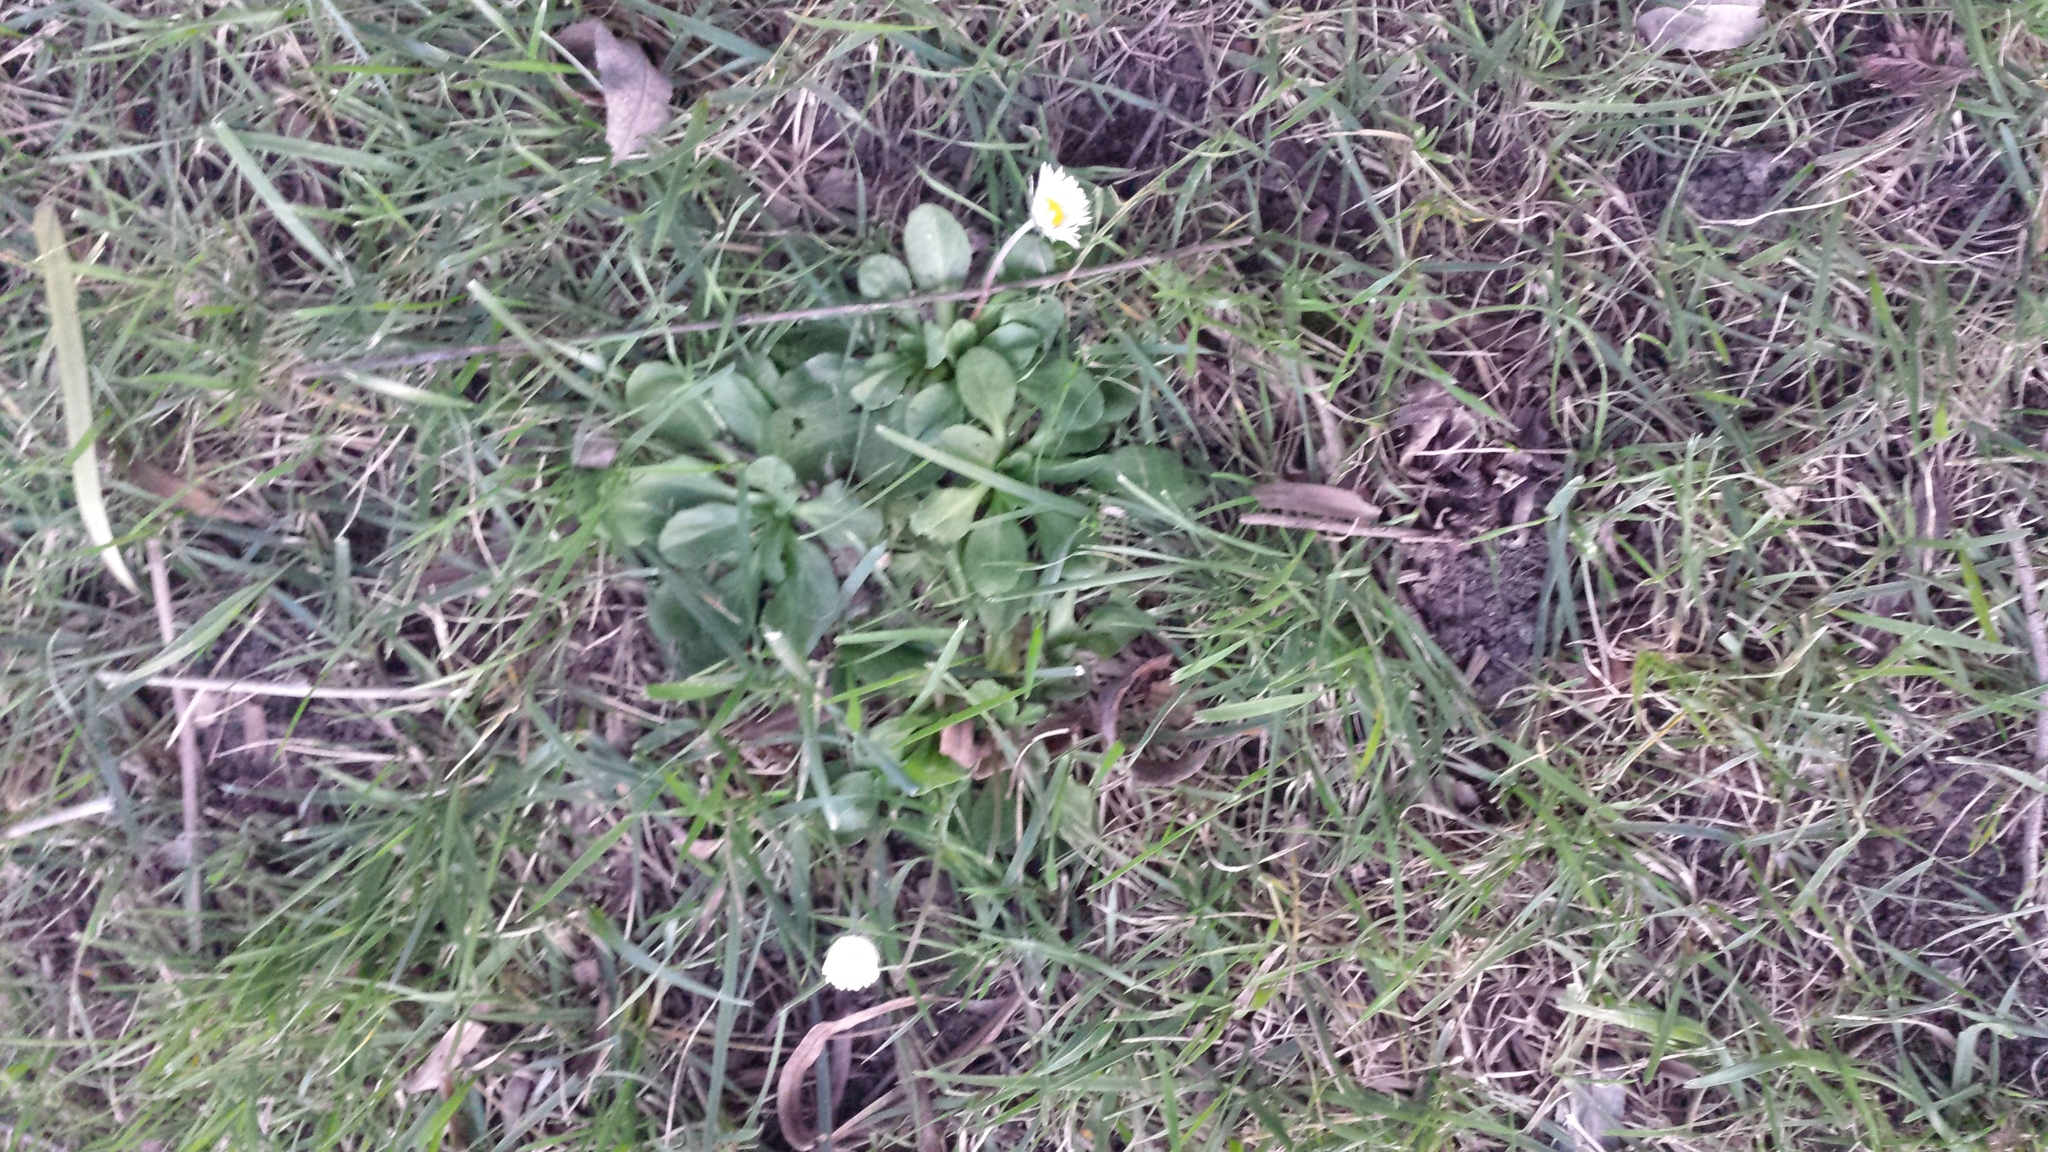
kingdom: Plantae
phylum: Tracheophyta
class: Magnoliopsida
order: Asterales
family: Asteraceae
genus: Bellis
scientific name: Bellis perennis
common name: Lawndaisy
